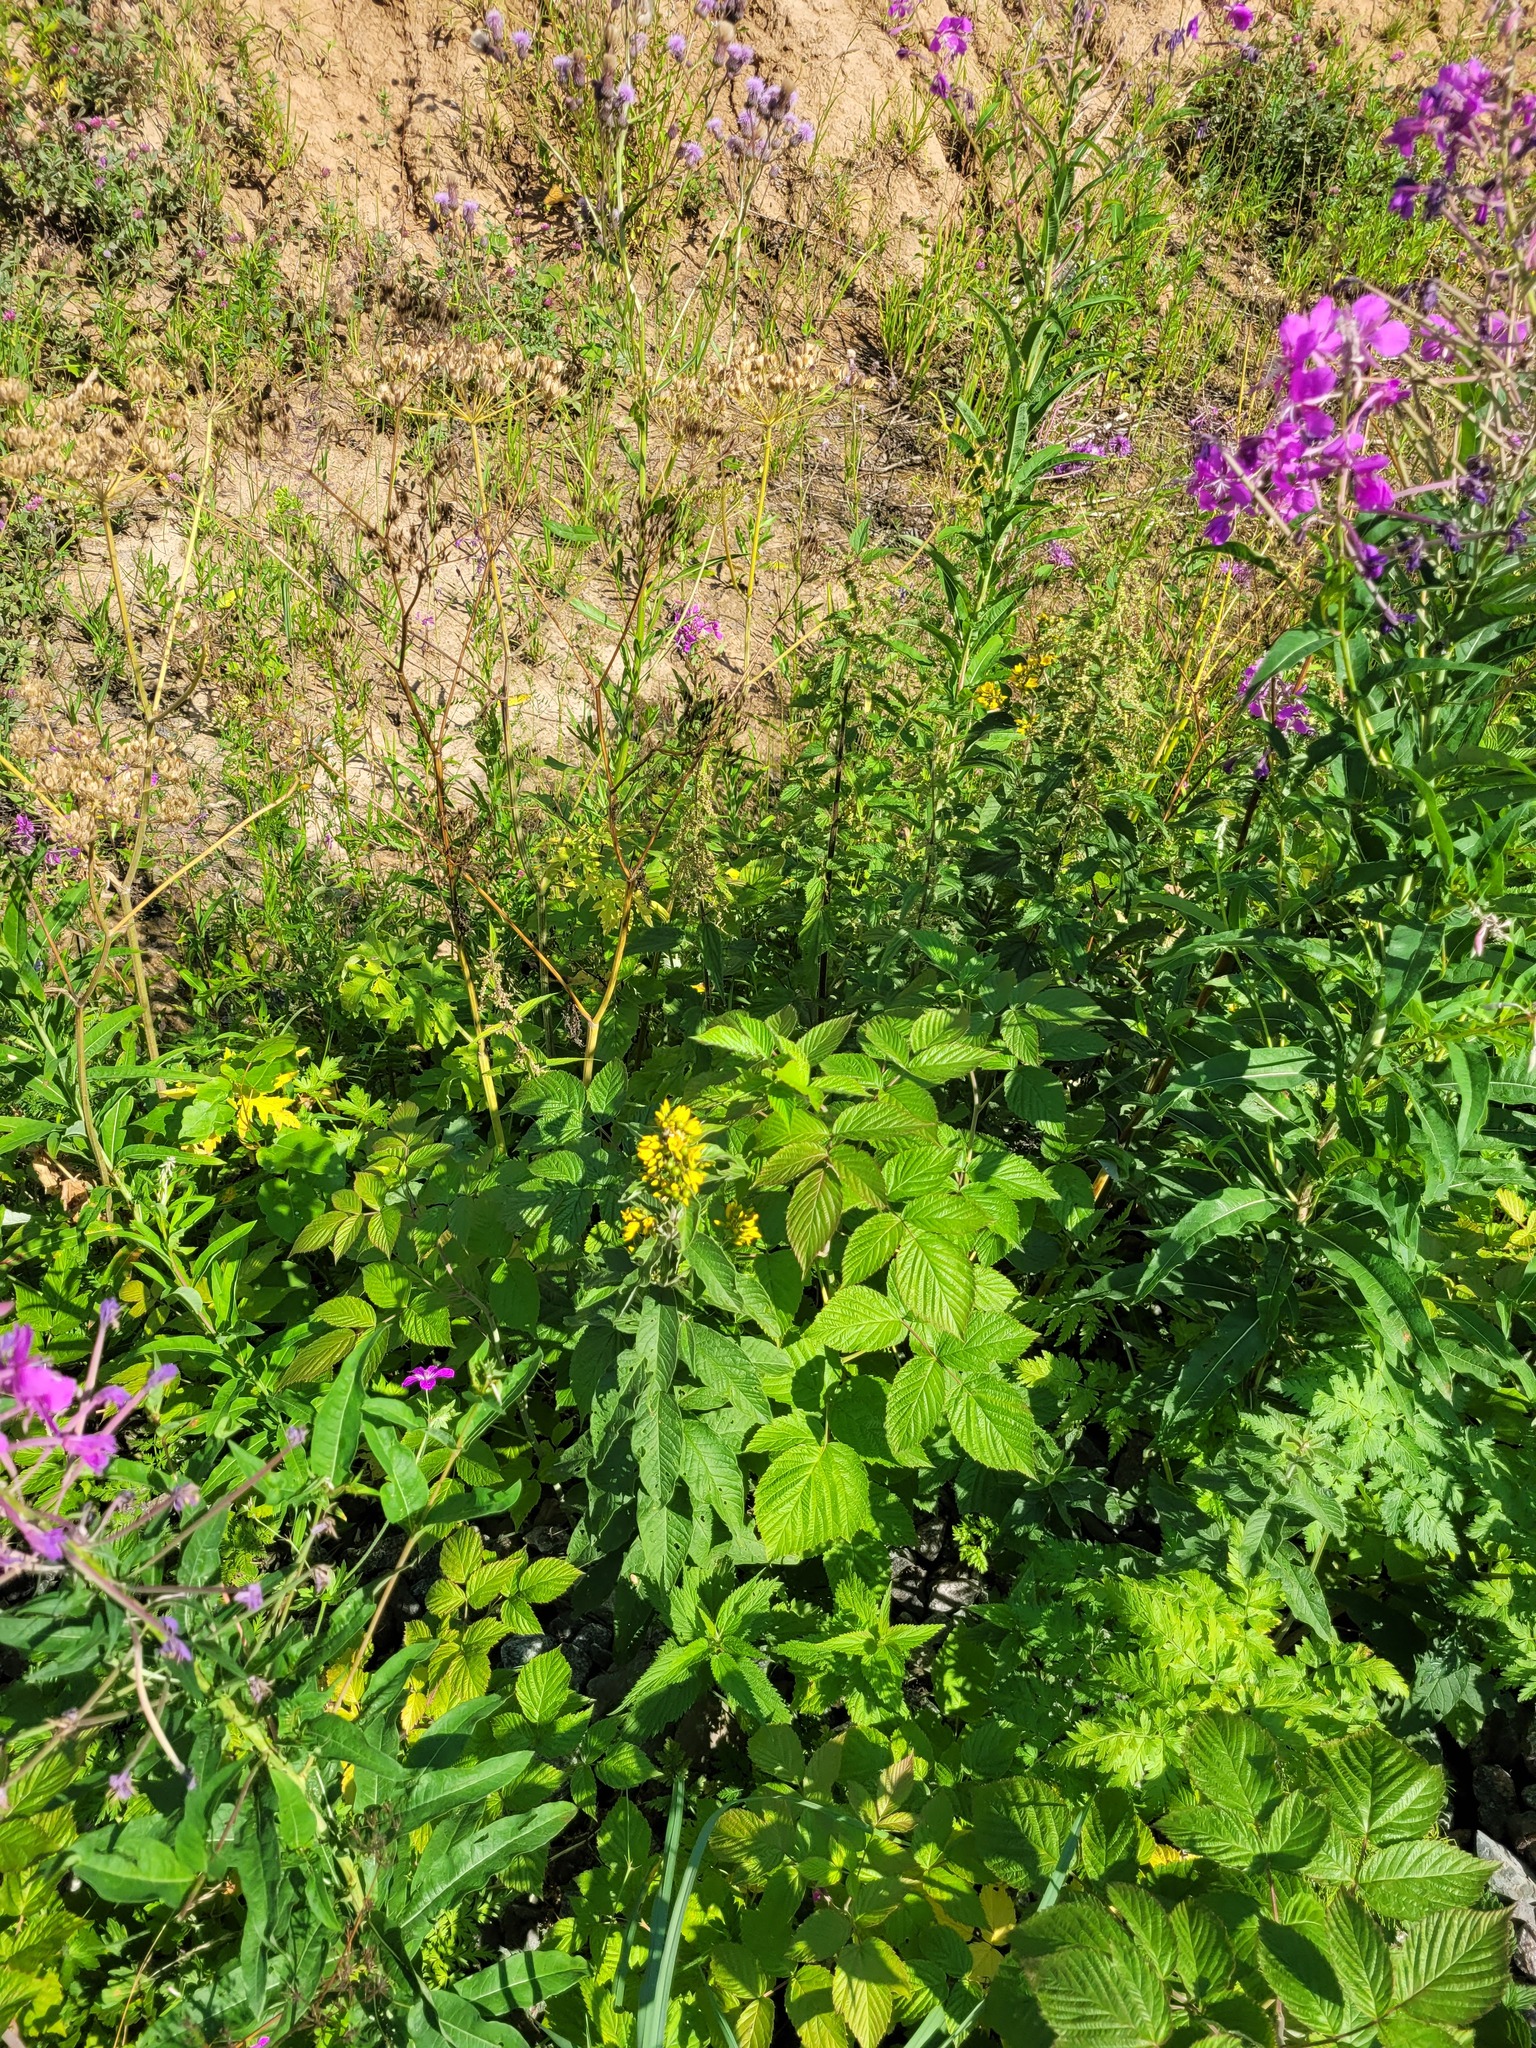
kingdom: Plantae
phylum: Tracheophyta
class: Magnoliopsida
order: Ericales
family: Primulaceae
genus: Lysimachia
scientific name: Lysimachia vulgaris
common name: Yellow loosestrife
